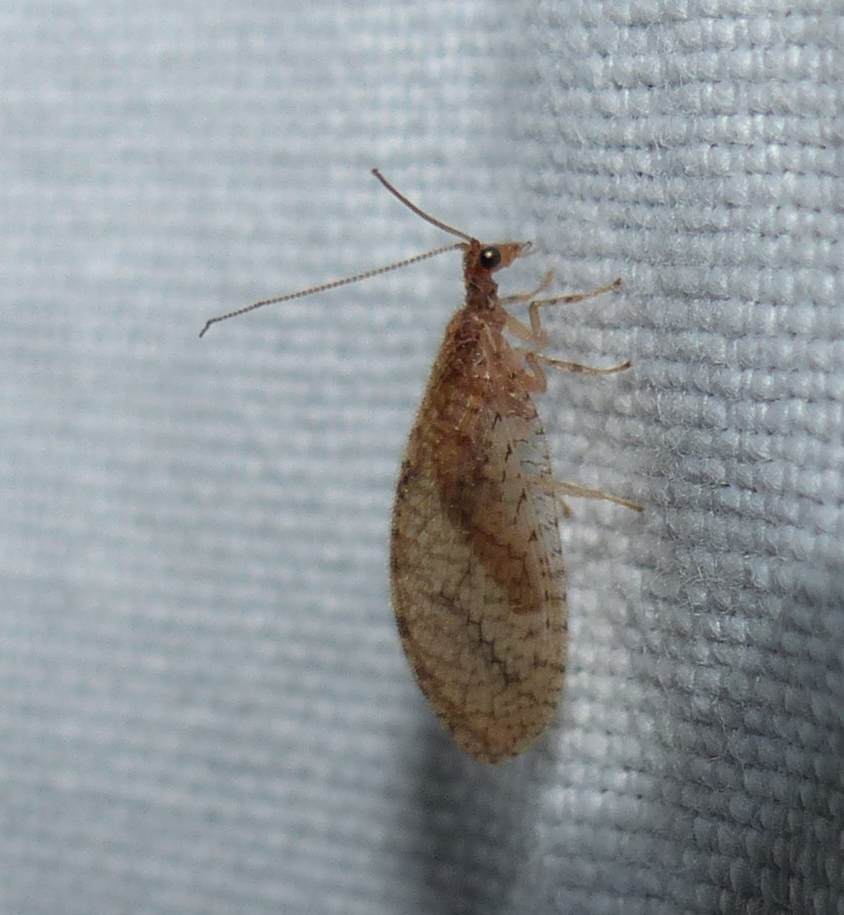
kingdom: Animalia
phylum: Arthropoda
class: Insecta
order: Neuroptera
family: Hemerobiidae
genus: Micromus
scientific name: Micromus posticus
